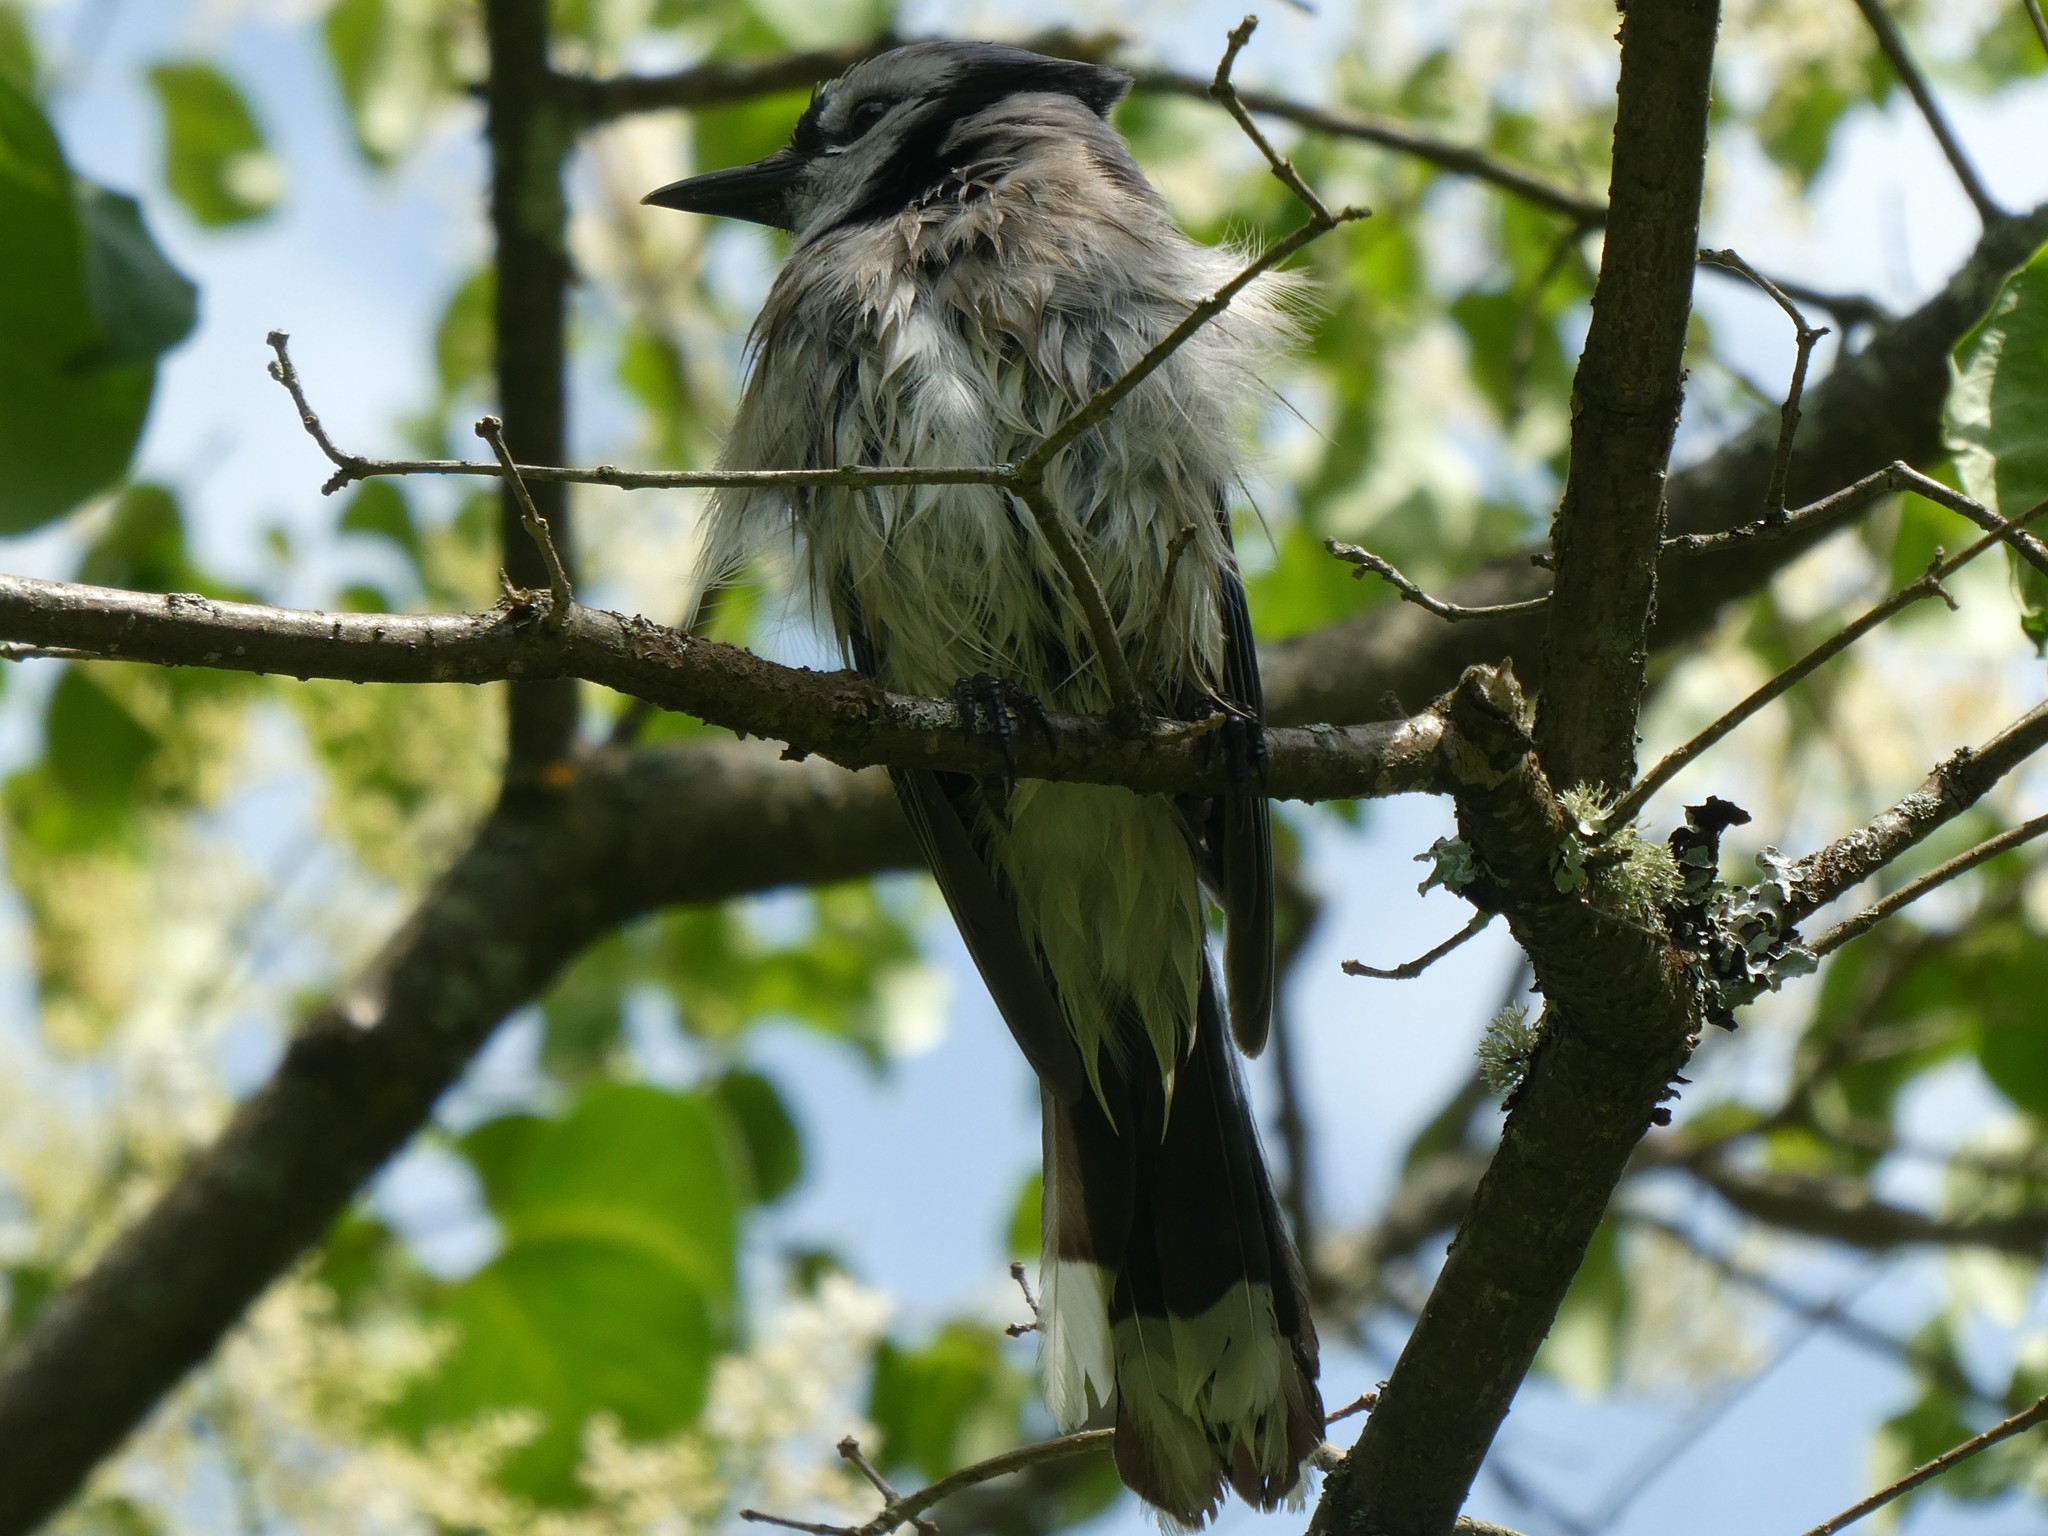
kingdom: Animalia
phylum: Chordata
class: Aves
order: Passeriformes
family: Corvidae
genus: Cyanocitta
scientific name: Cyanocitta cristata
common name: Blue jay
